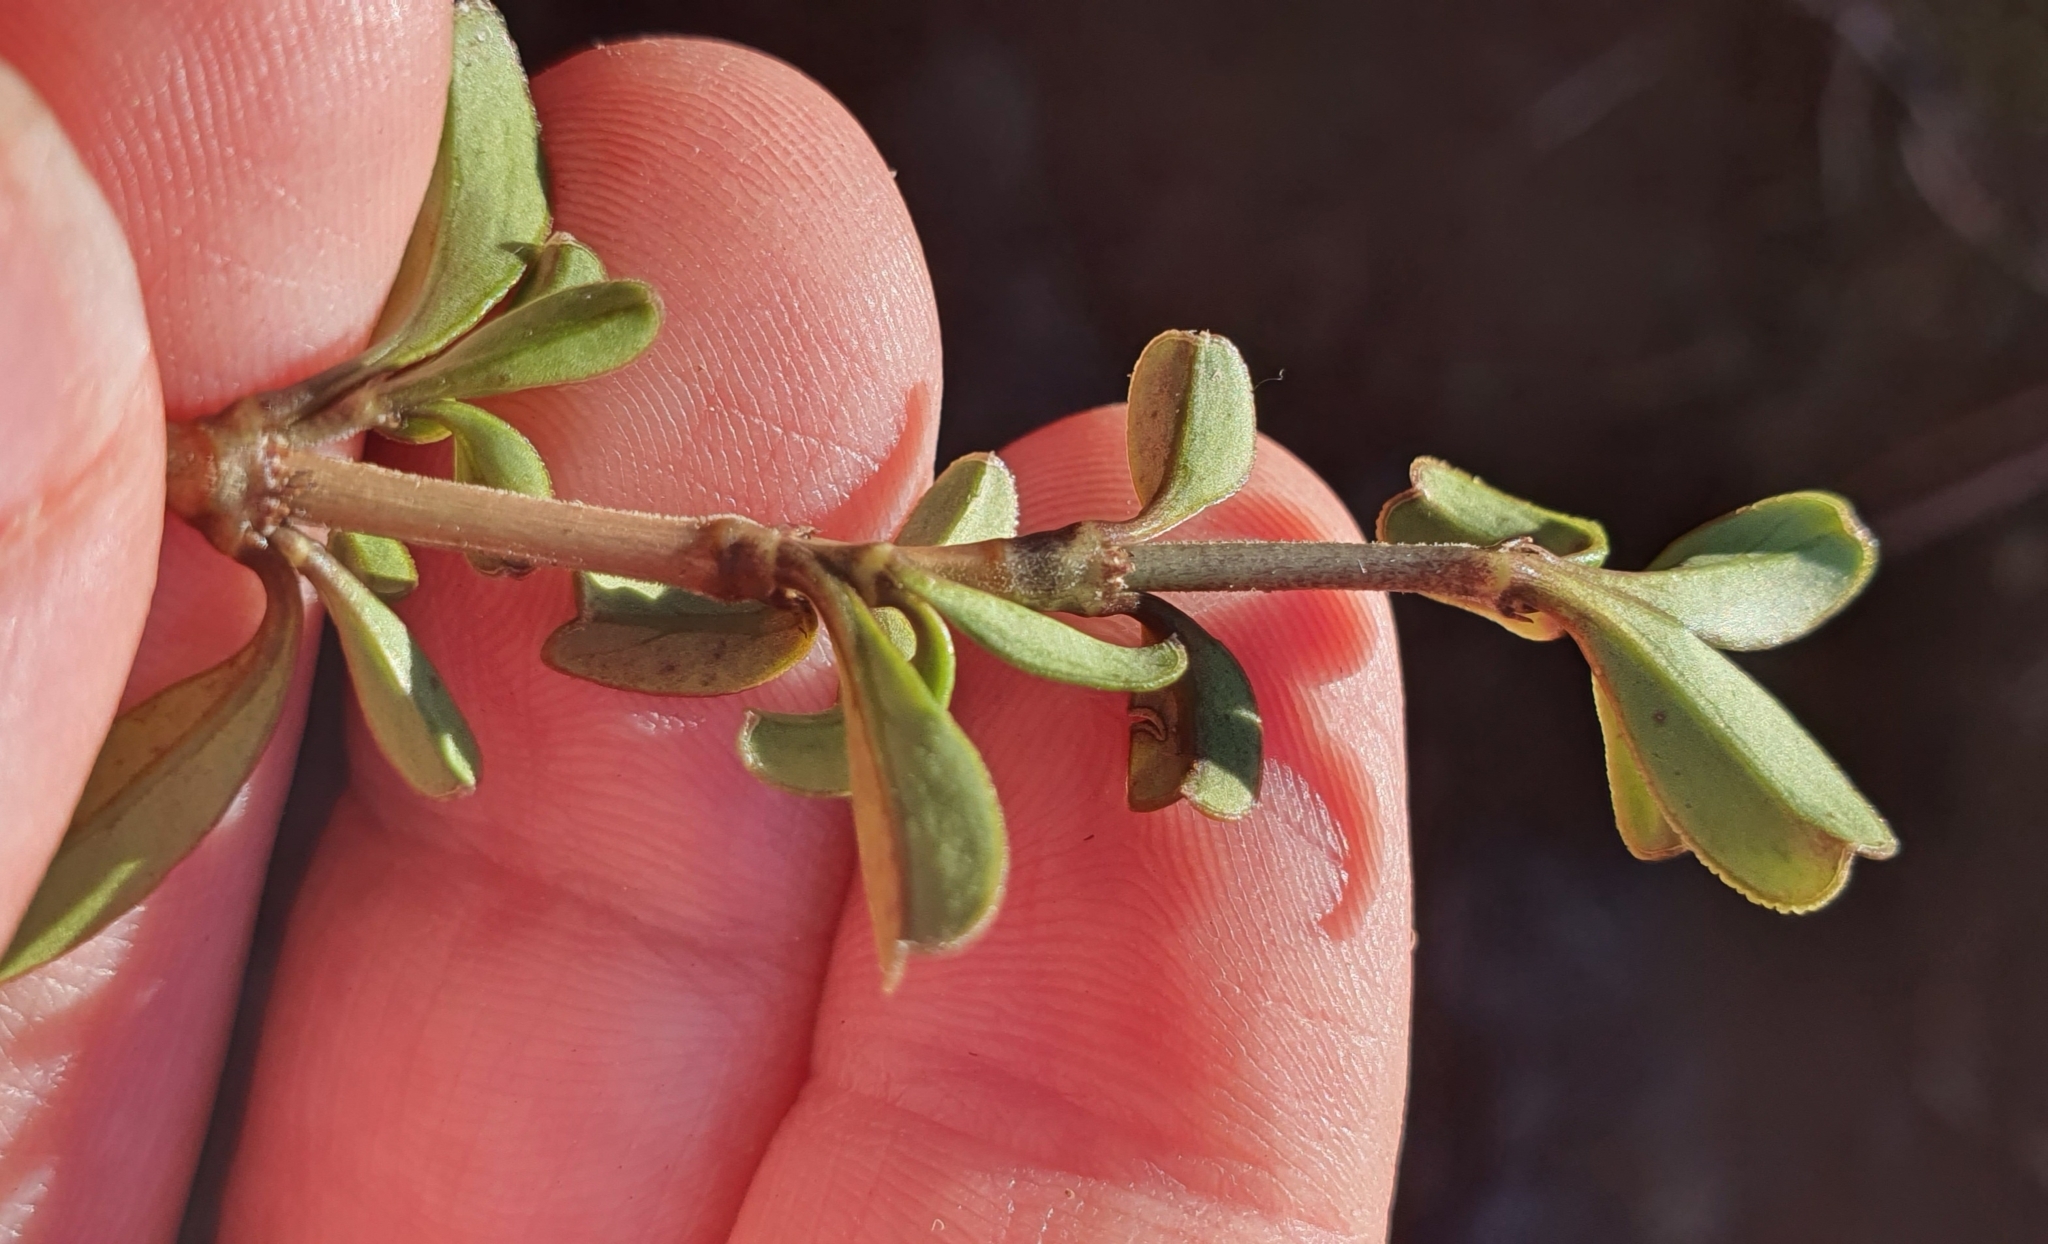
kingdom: Plantae
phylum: Tracheophyta
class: Magnoliopsida
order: Gentianales
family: Rubiaceae
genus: Coprosma
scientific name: Coprosma crenulata
